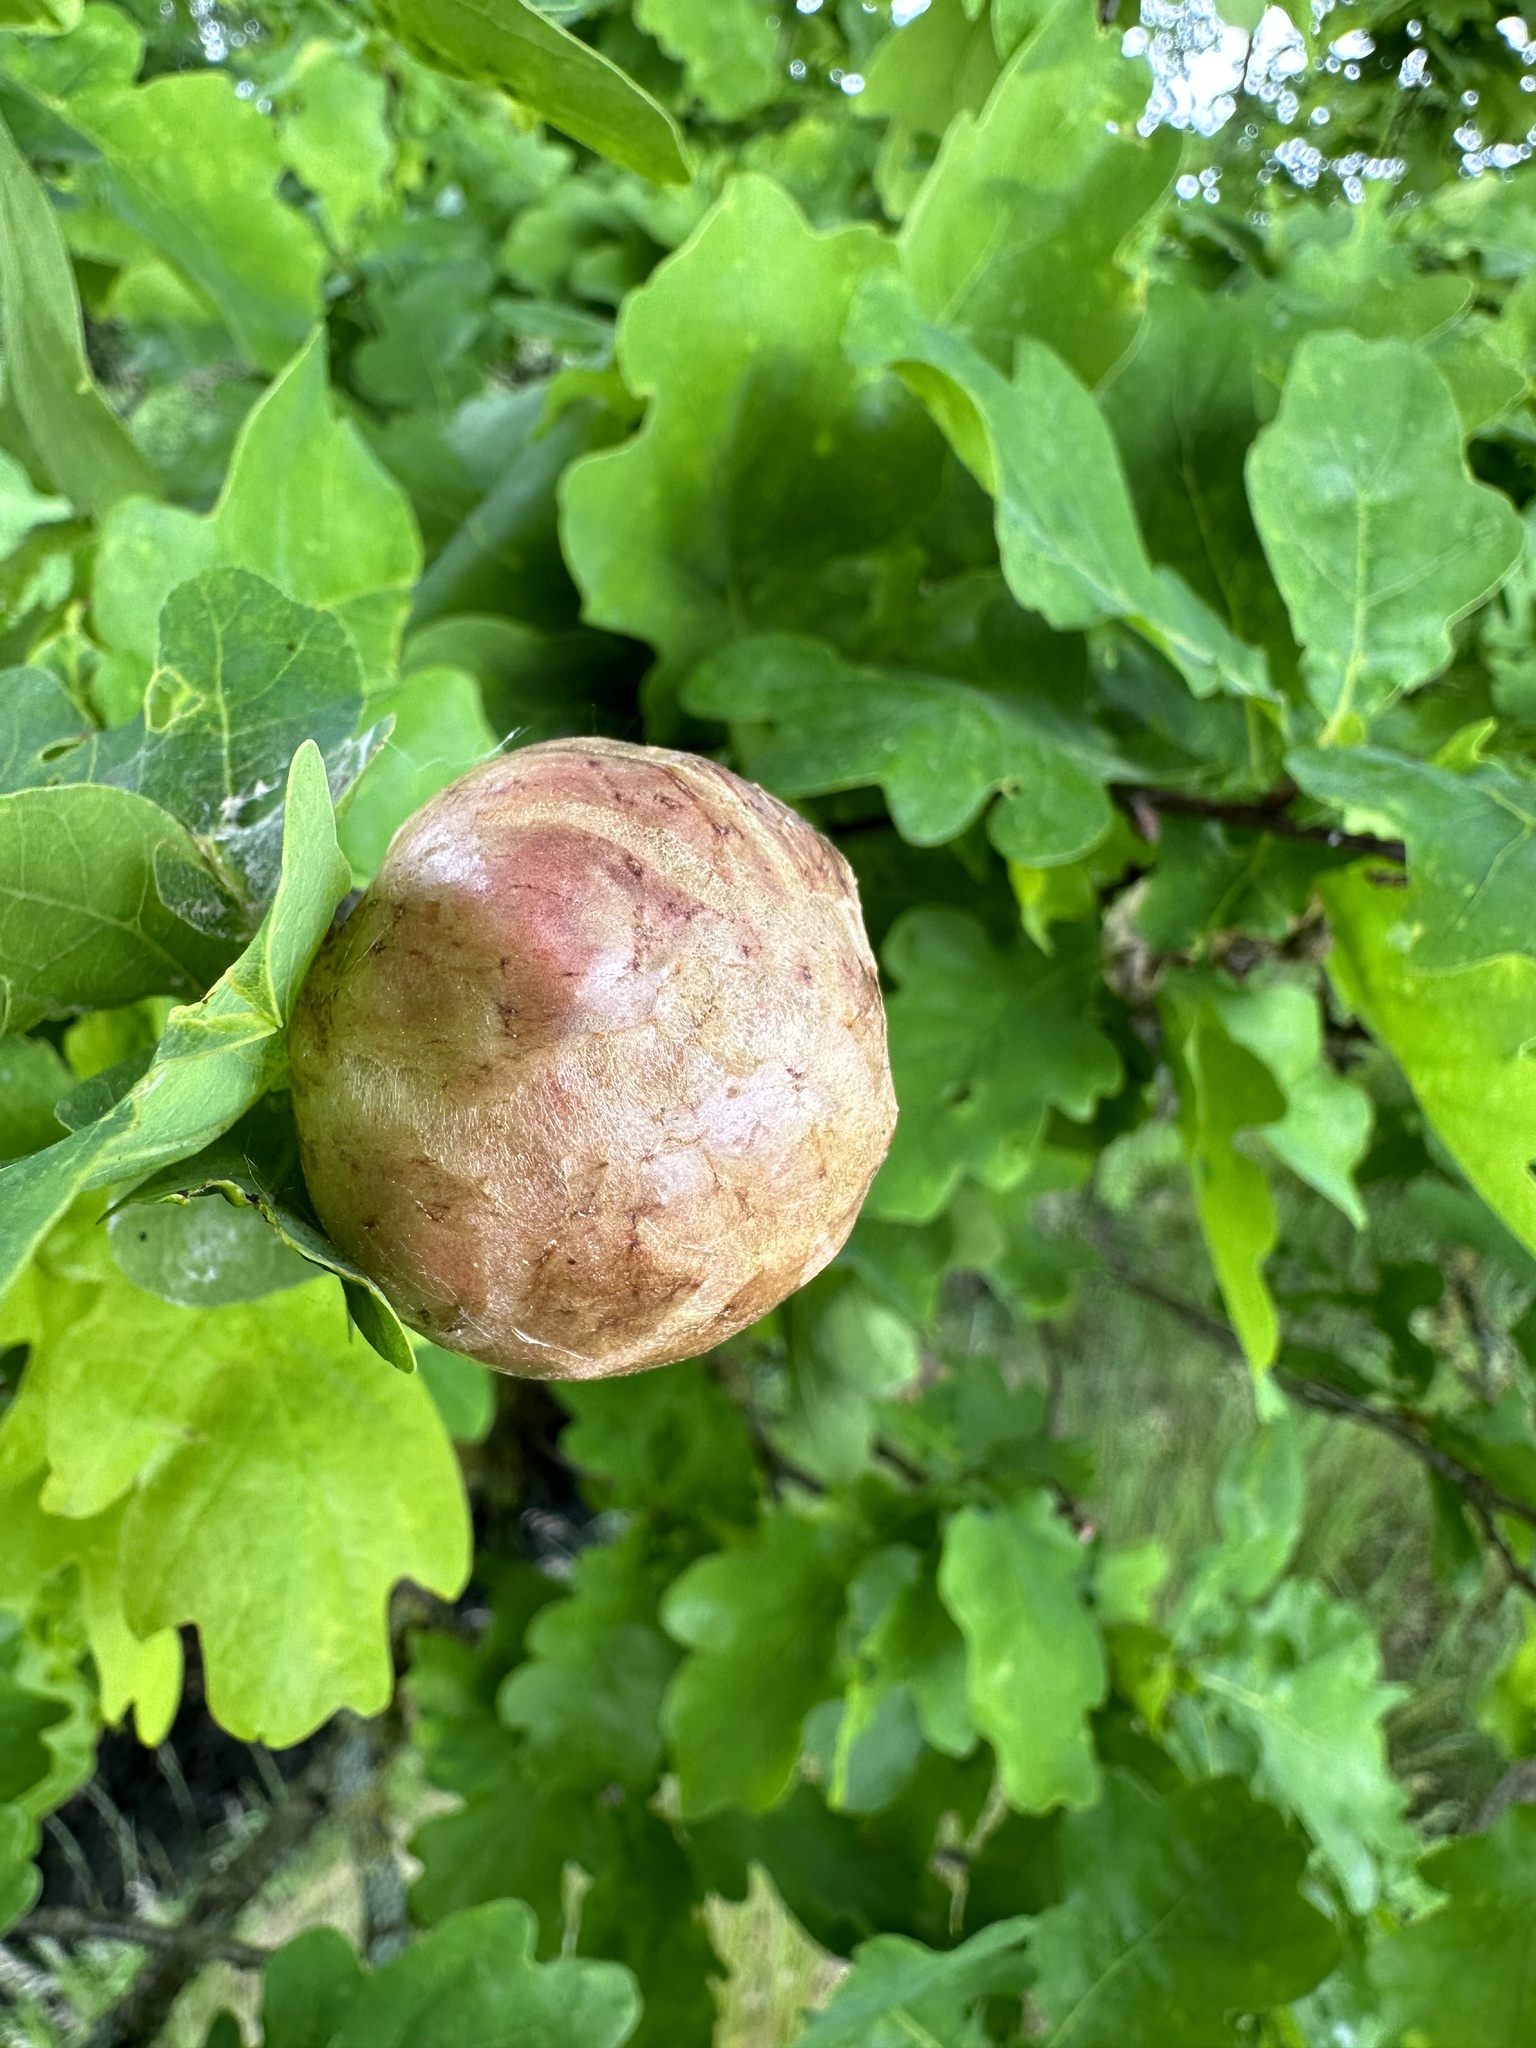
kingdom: Animalia
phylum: Arthropoda
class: Insecta
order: Hymenoptera
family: Cynipidae
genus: Biorhiza
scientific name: Biorhiza pallida
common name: Oak apple
